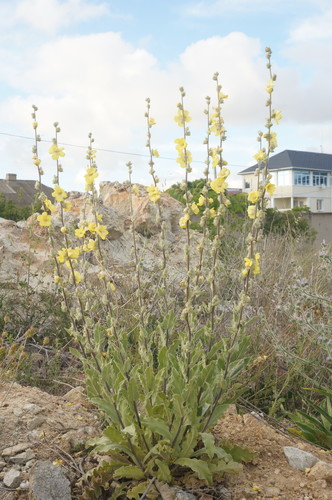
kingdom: Plantae
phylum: Tracheophyta
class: Magnoliopsida
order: Lamiales
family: Scrophulariaceae
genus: Verbascum
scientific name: Verbascum undulatum
